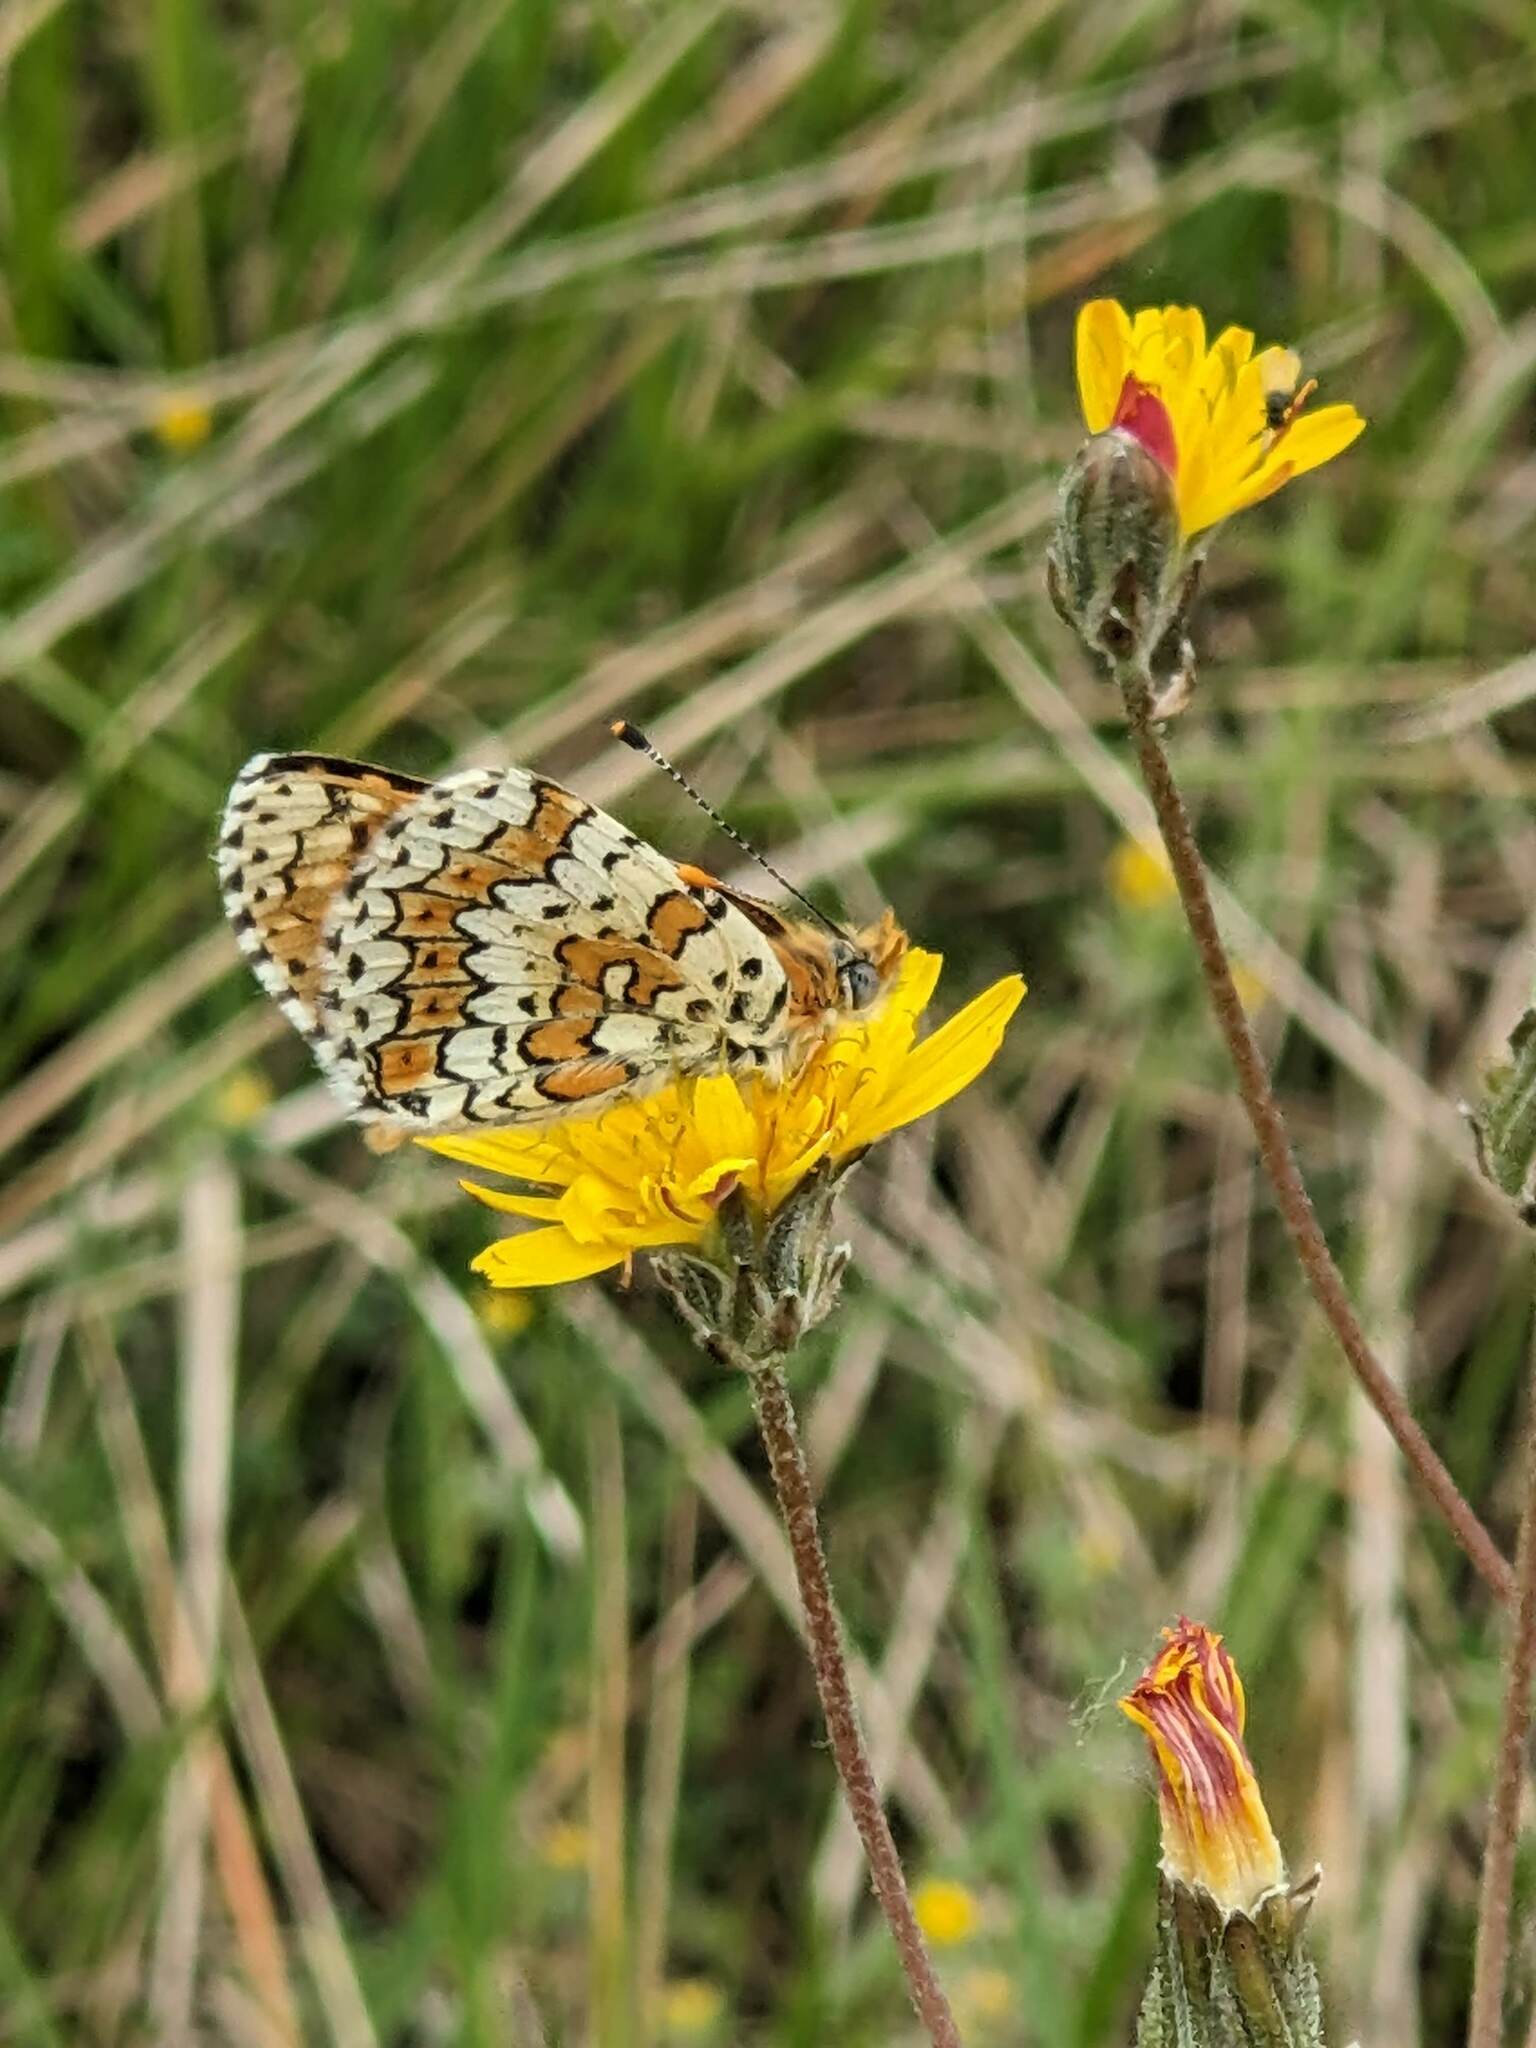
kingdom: Animalia
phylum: Arthropoda
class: Insecta
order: Lepidoptera
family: Nymphalidae
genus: Melitaea
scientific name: Melitaea cinxia
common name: Glanville fritillary
